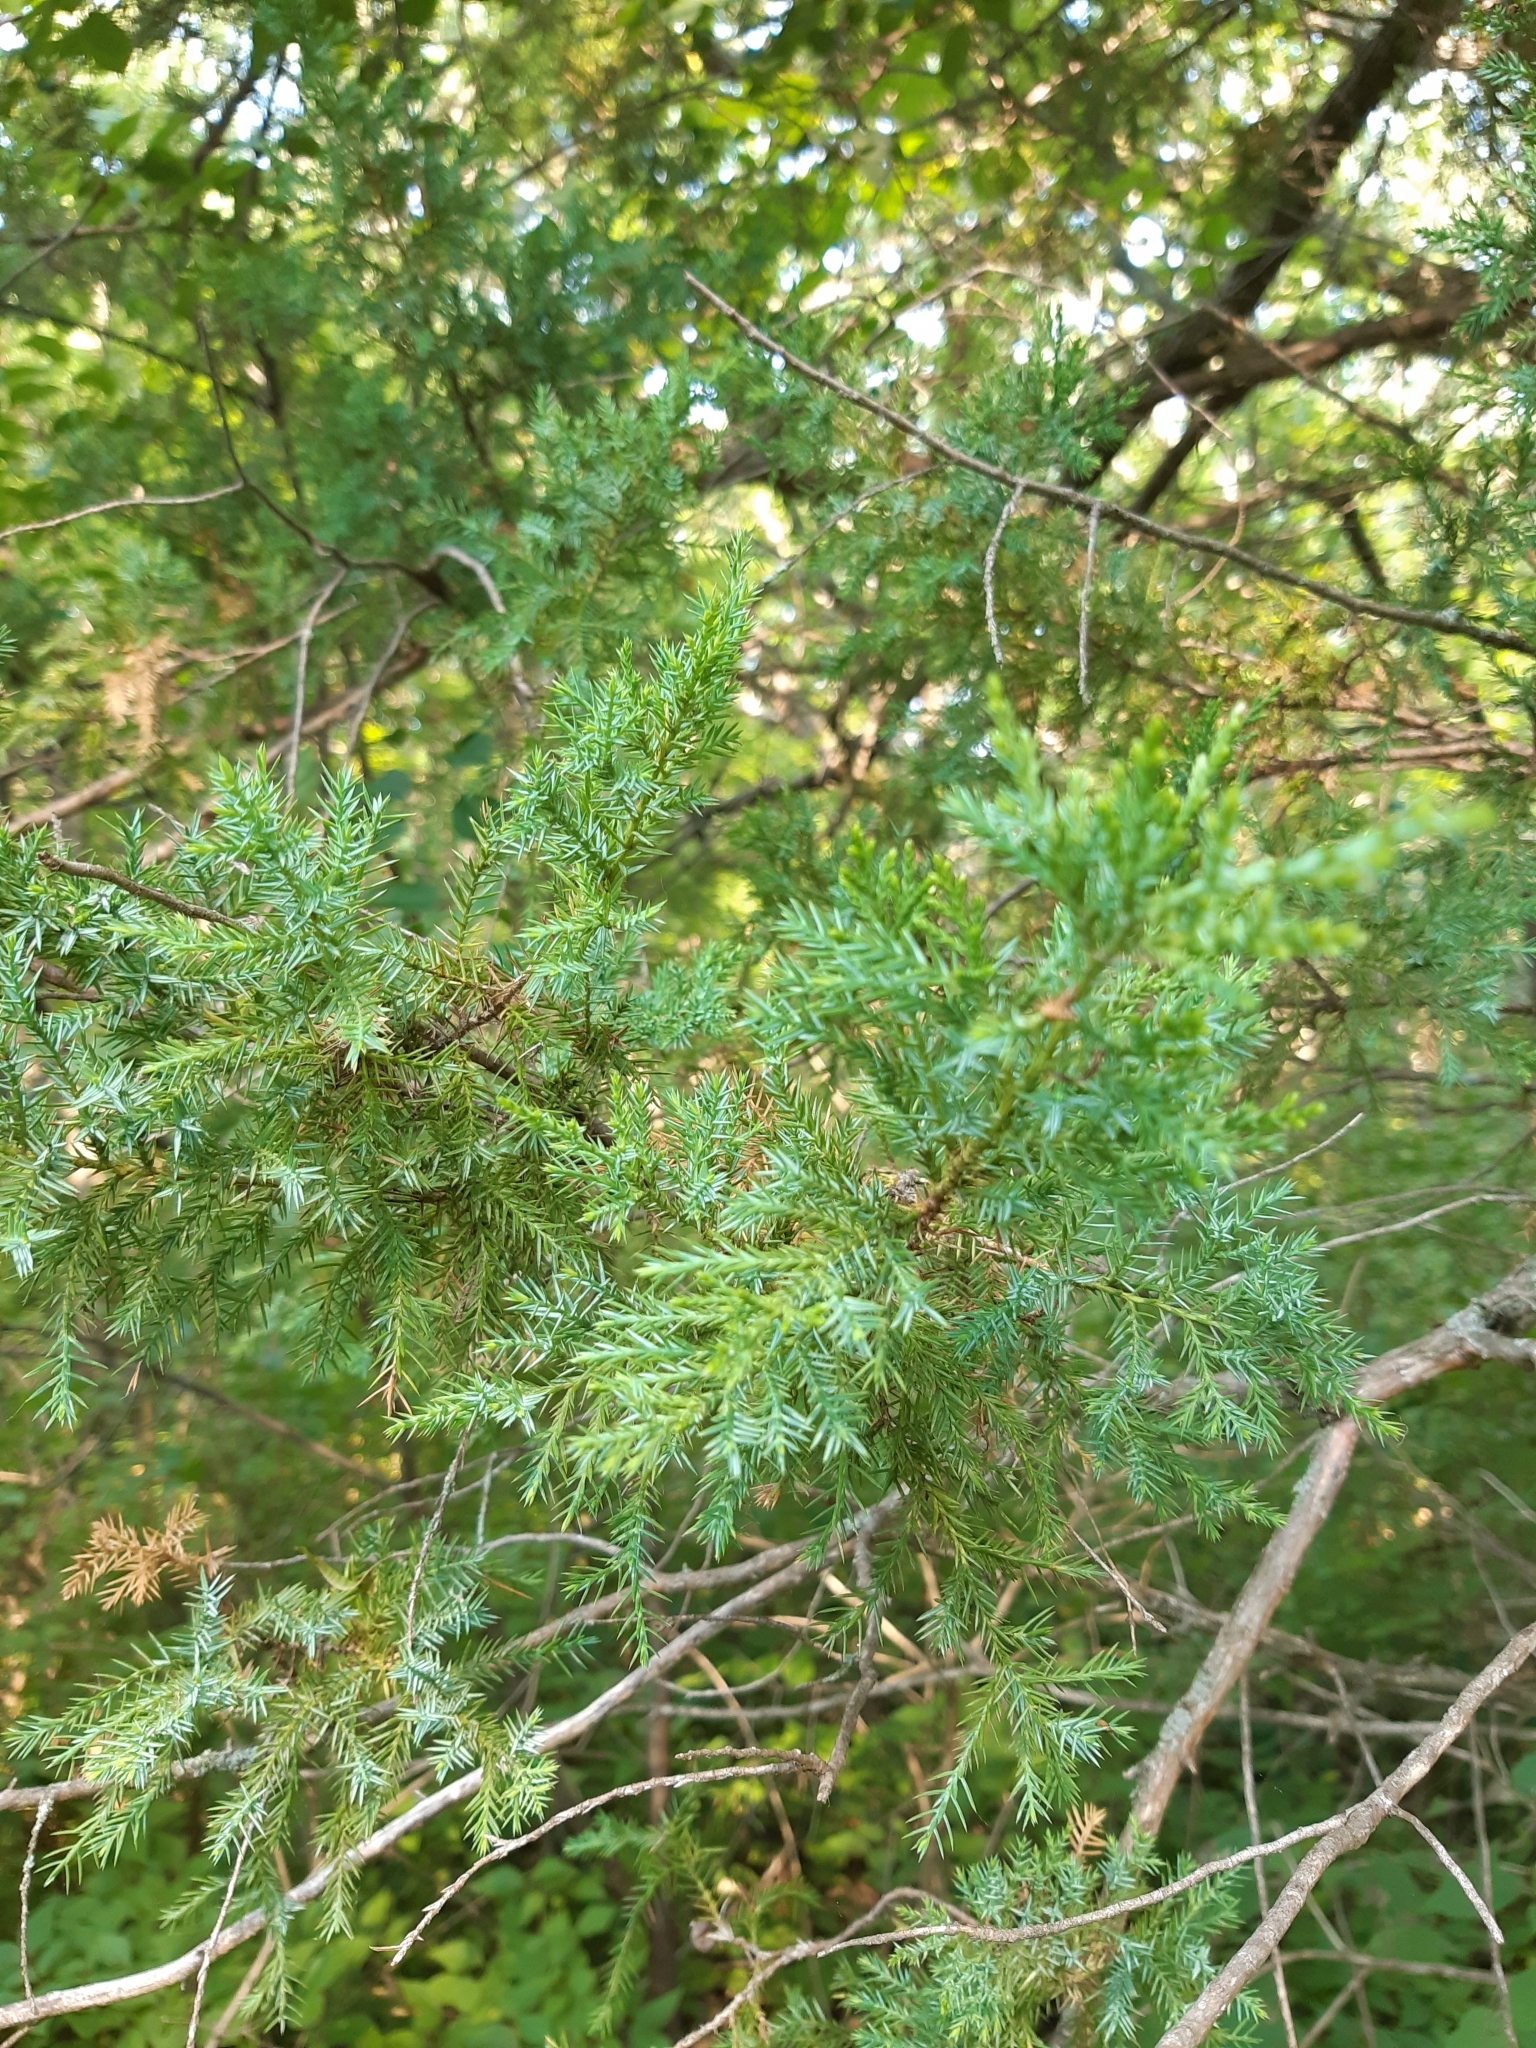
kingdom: Plantae
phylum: Tracheophyta
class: Pinopsida
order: Pinales
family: Cupressaceae
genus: Juniperus
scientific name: Juniperus virginiana
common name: Red juniper
